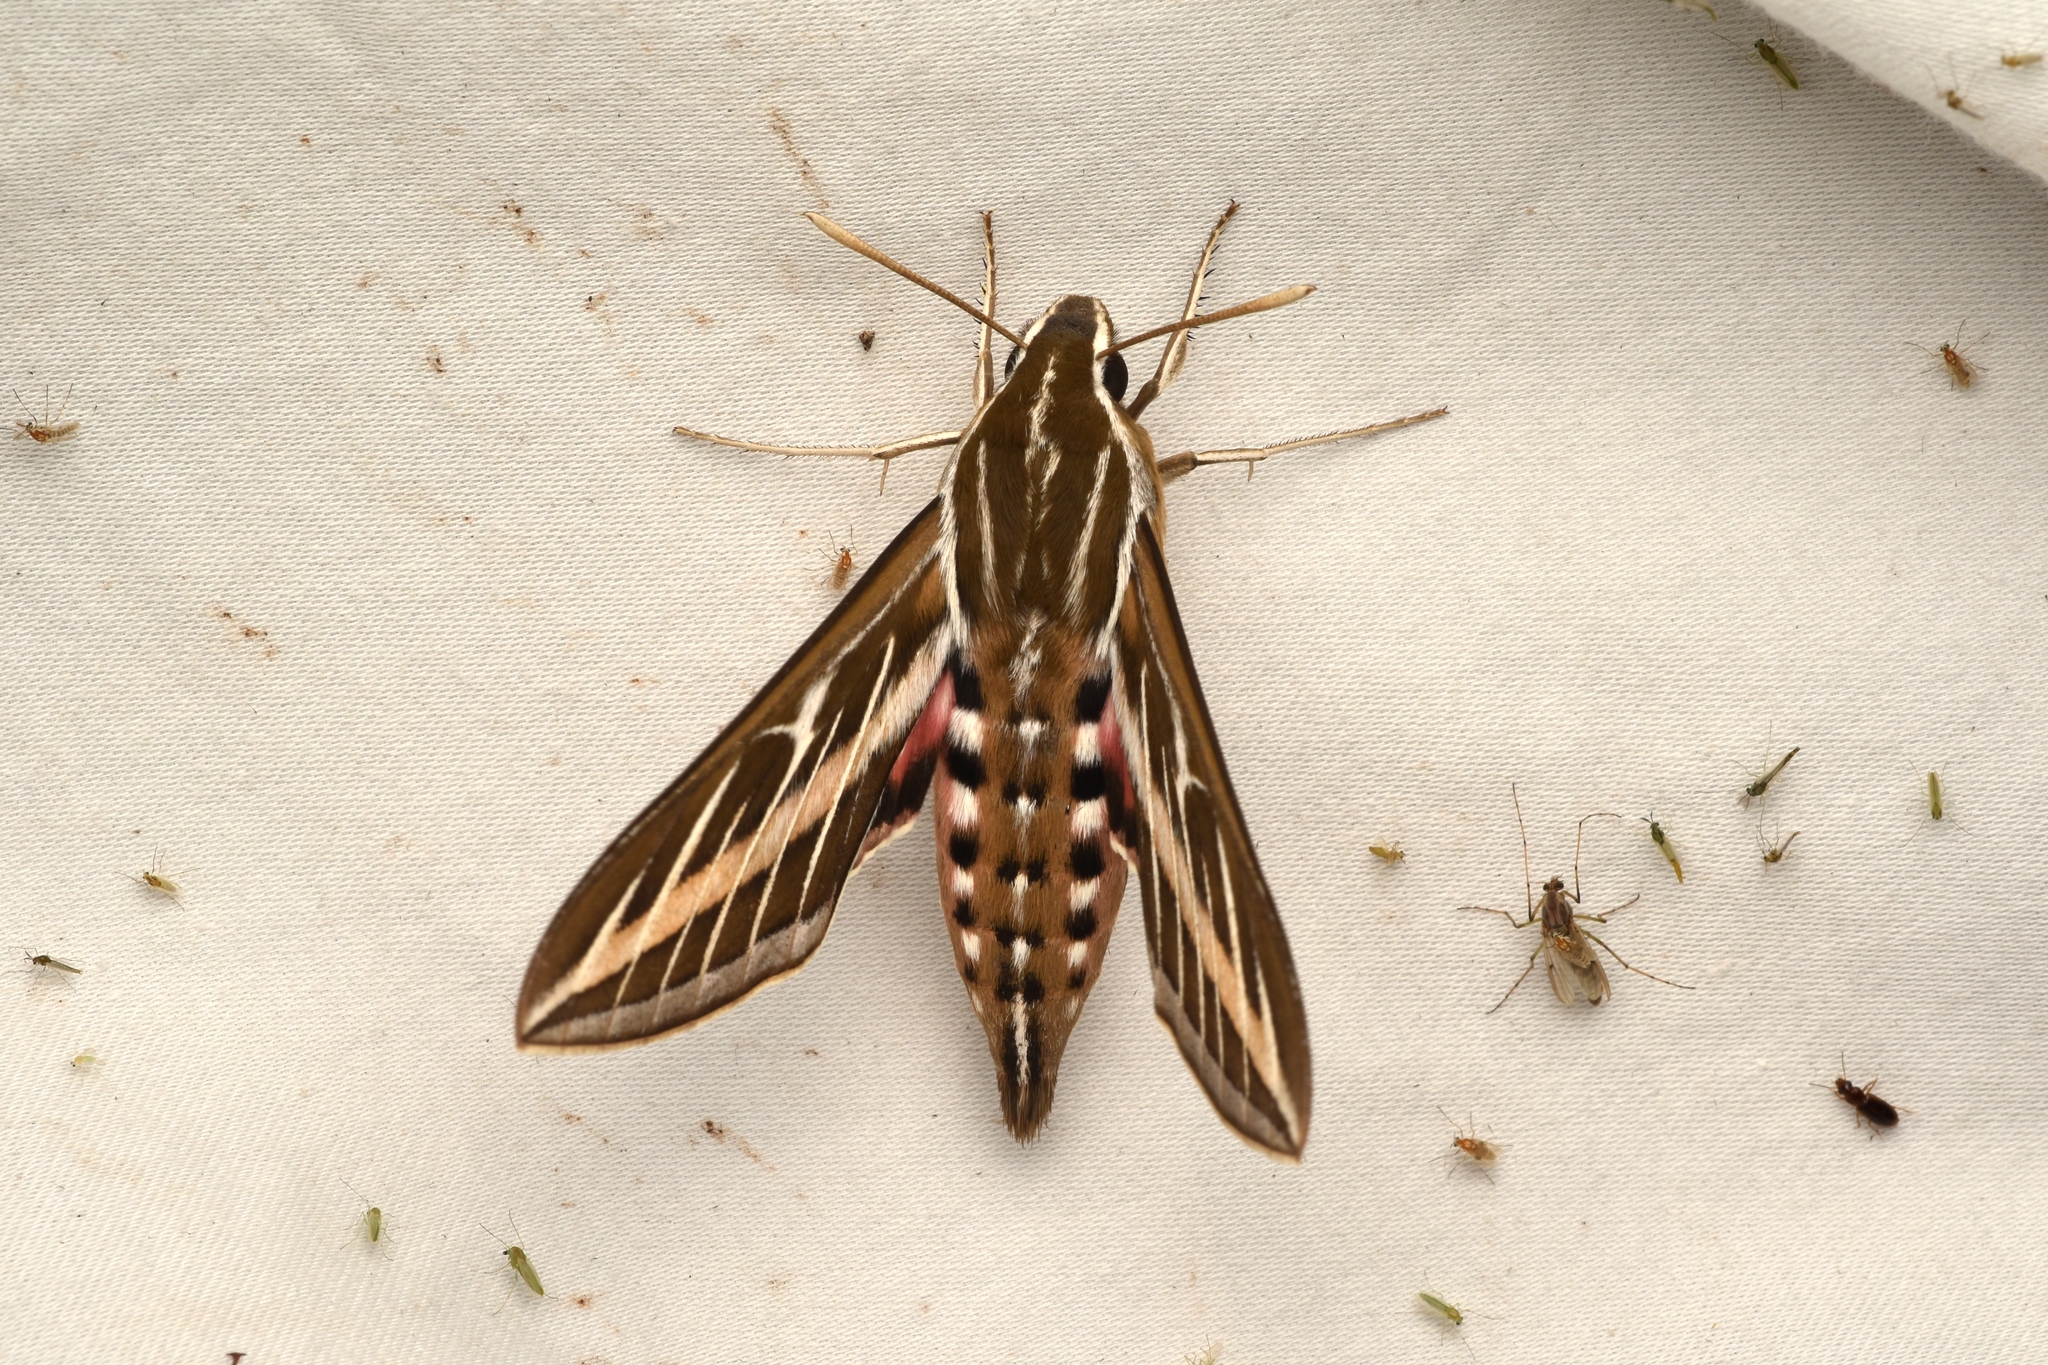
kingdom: Animalia
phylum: Arthropoda
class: Insecta
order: Lepidoptera
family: Sphingidae
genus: Hyles
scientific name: Hyles lineata
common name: White-lined sphinx
